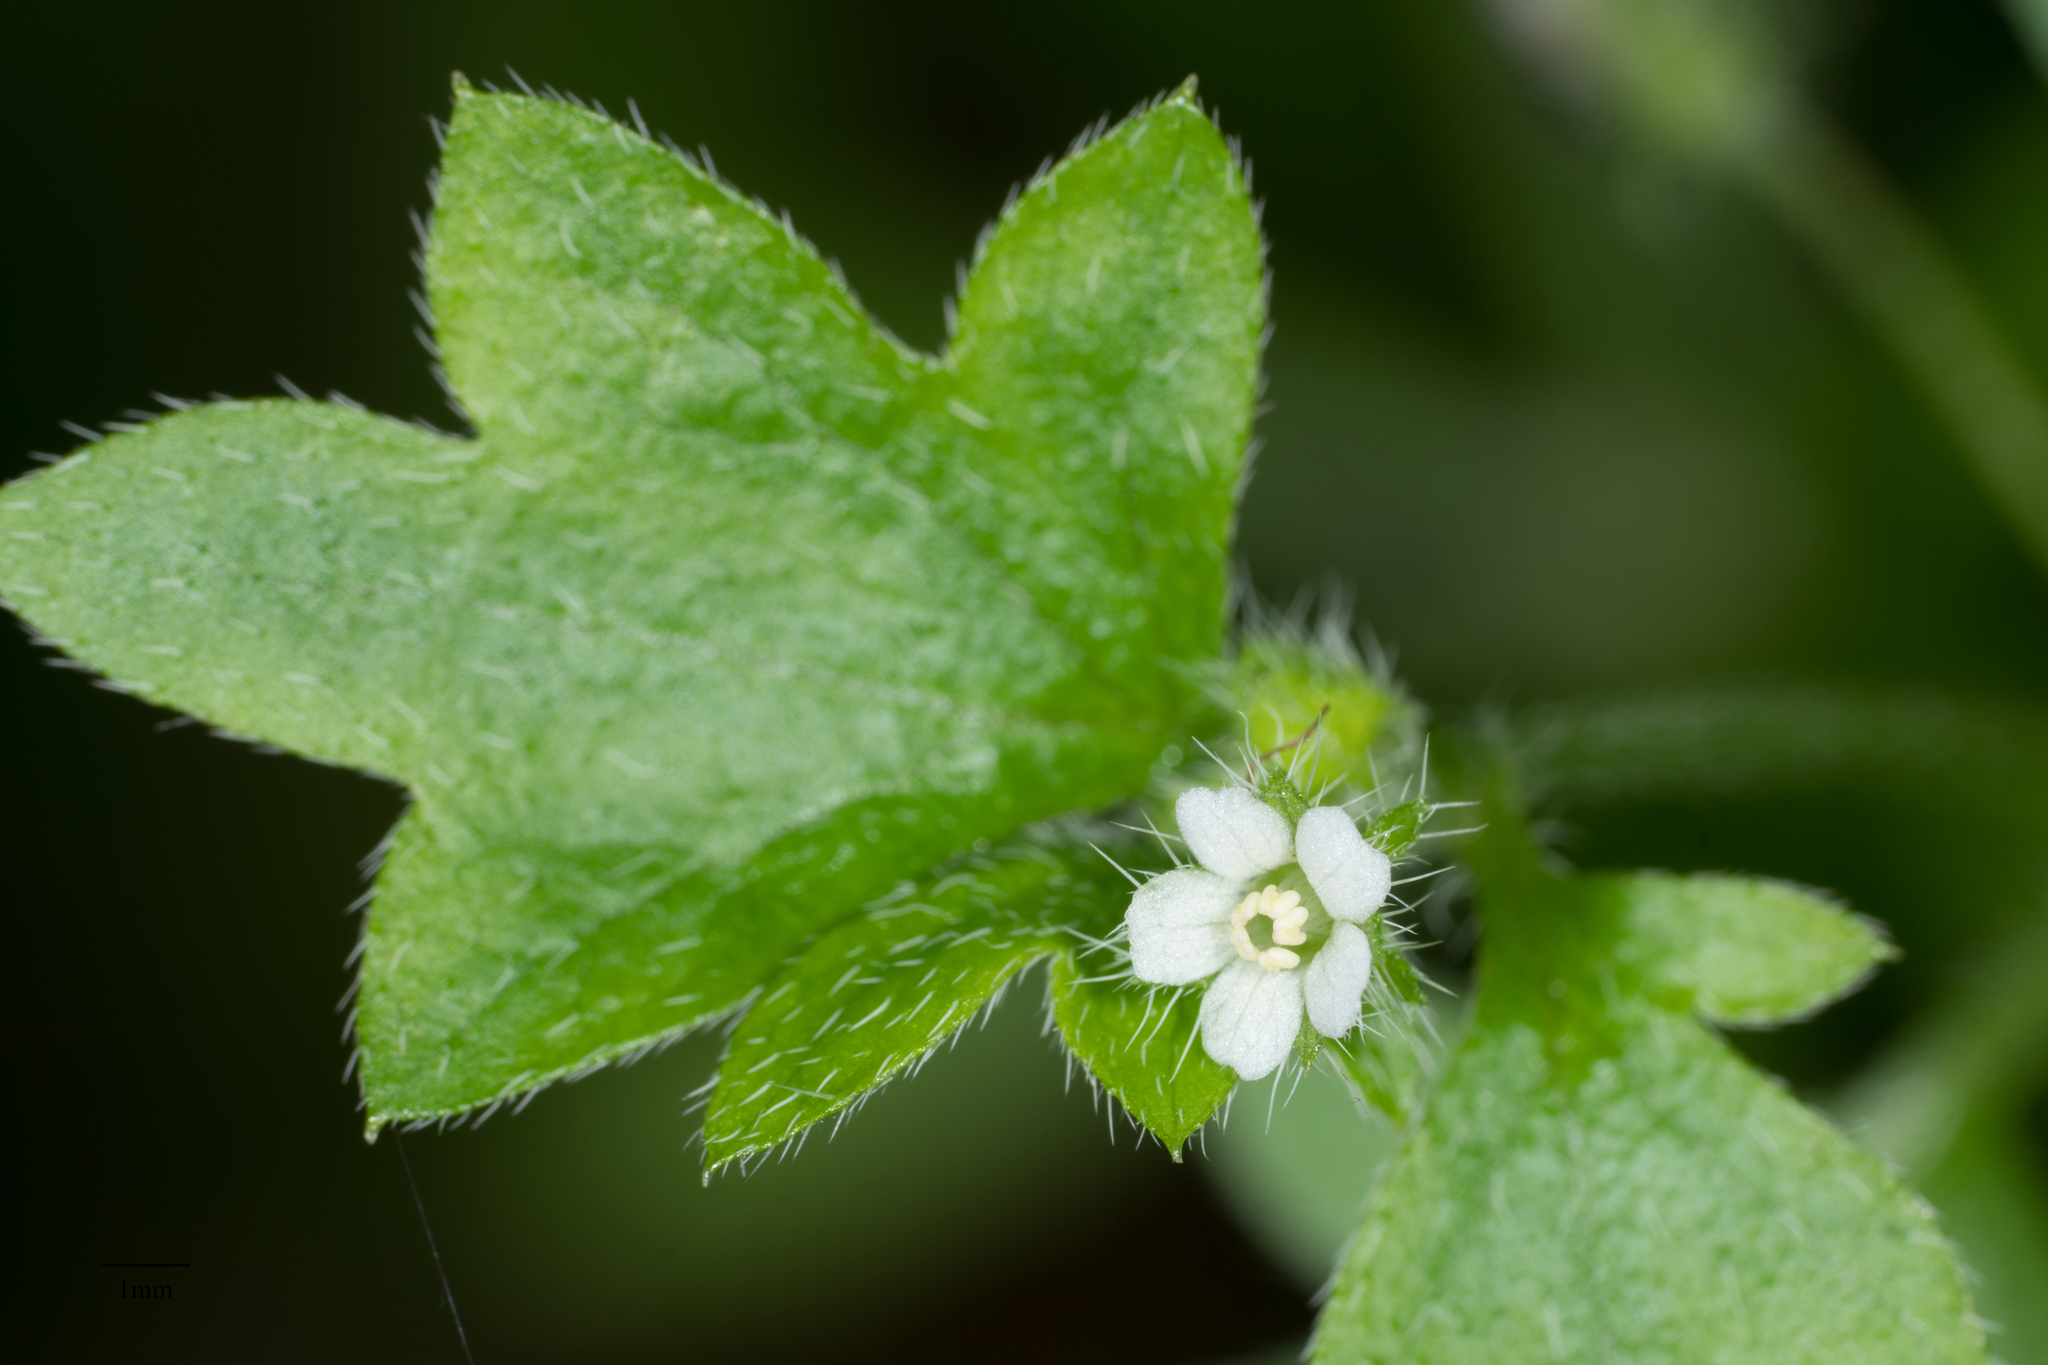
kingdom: Plantae
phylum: Tracheophyta
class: Magnoliopsida
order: Boraginales
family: Hydrophyllaceae
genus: Nemophila
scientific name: Nemophila parviflora
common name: Small-flowered baby-blue-eyes
